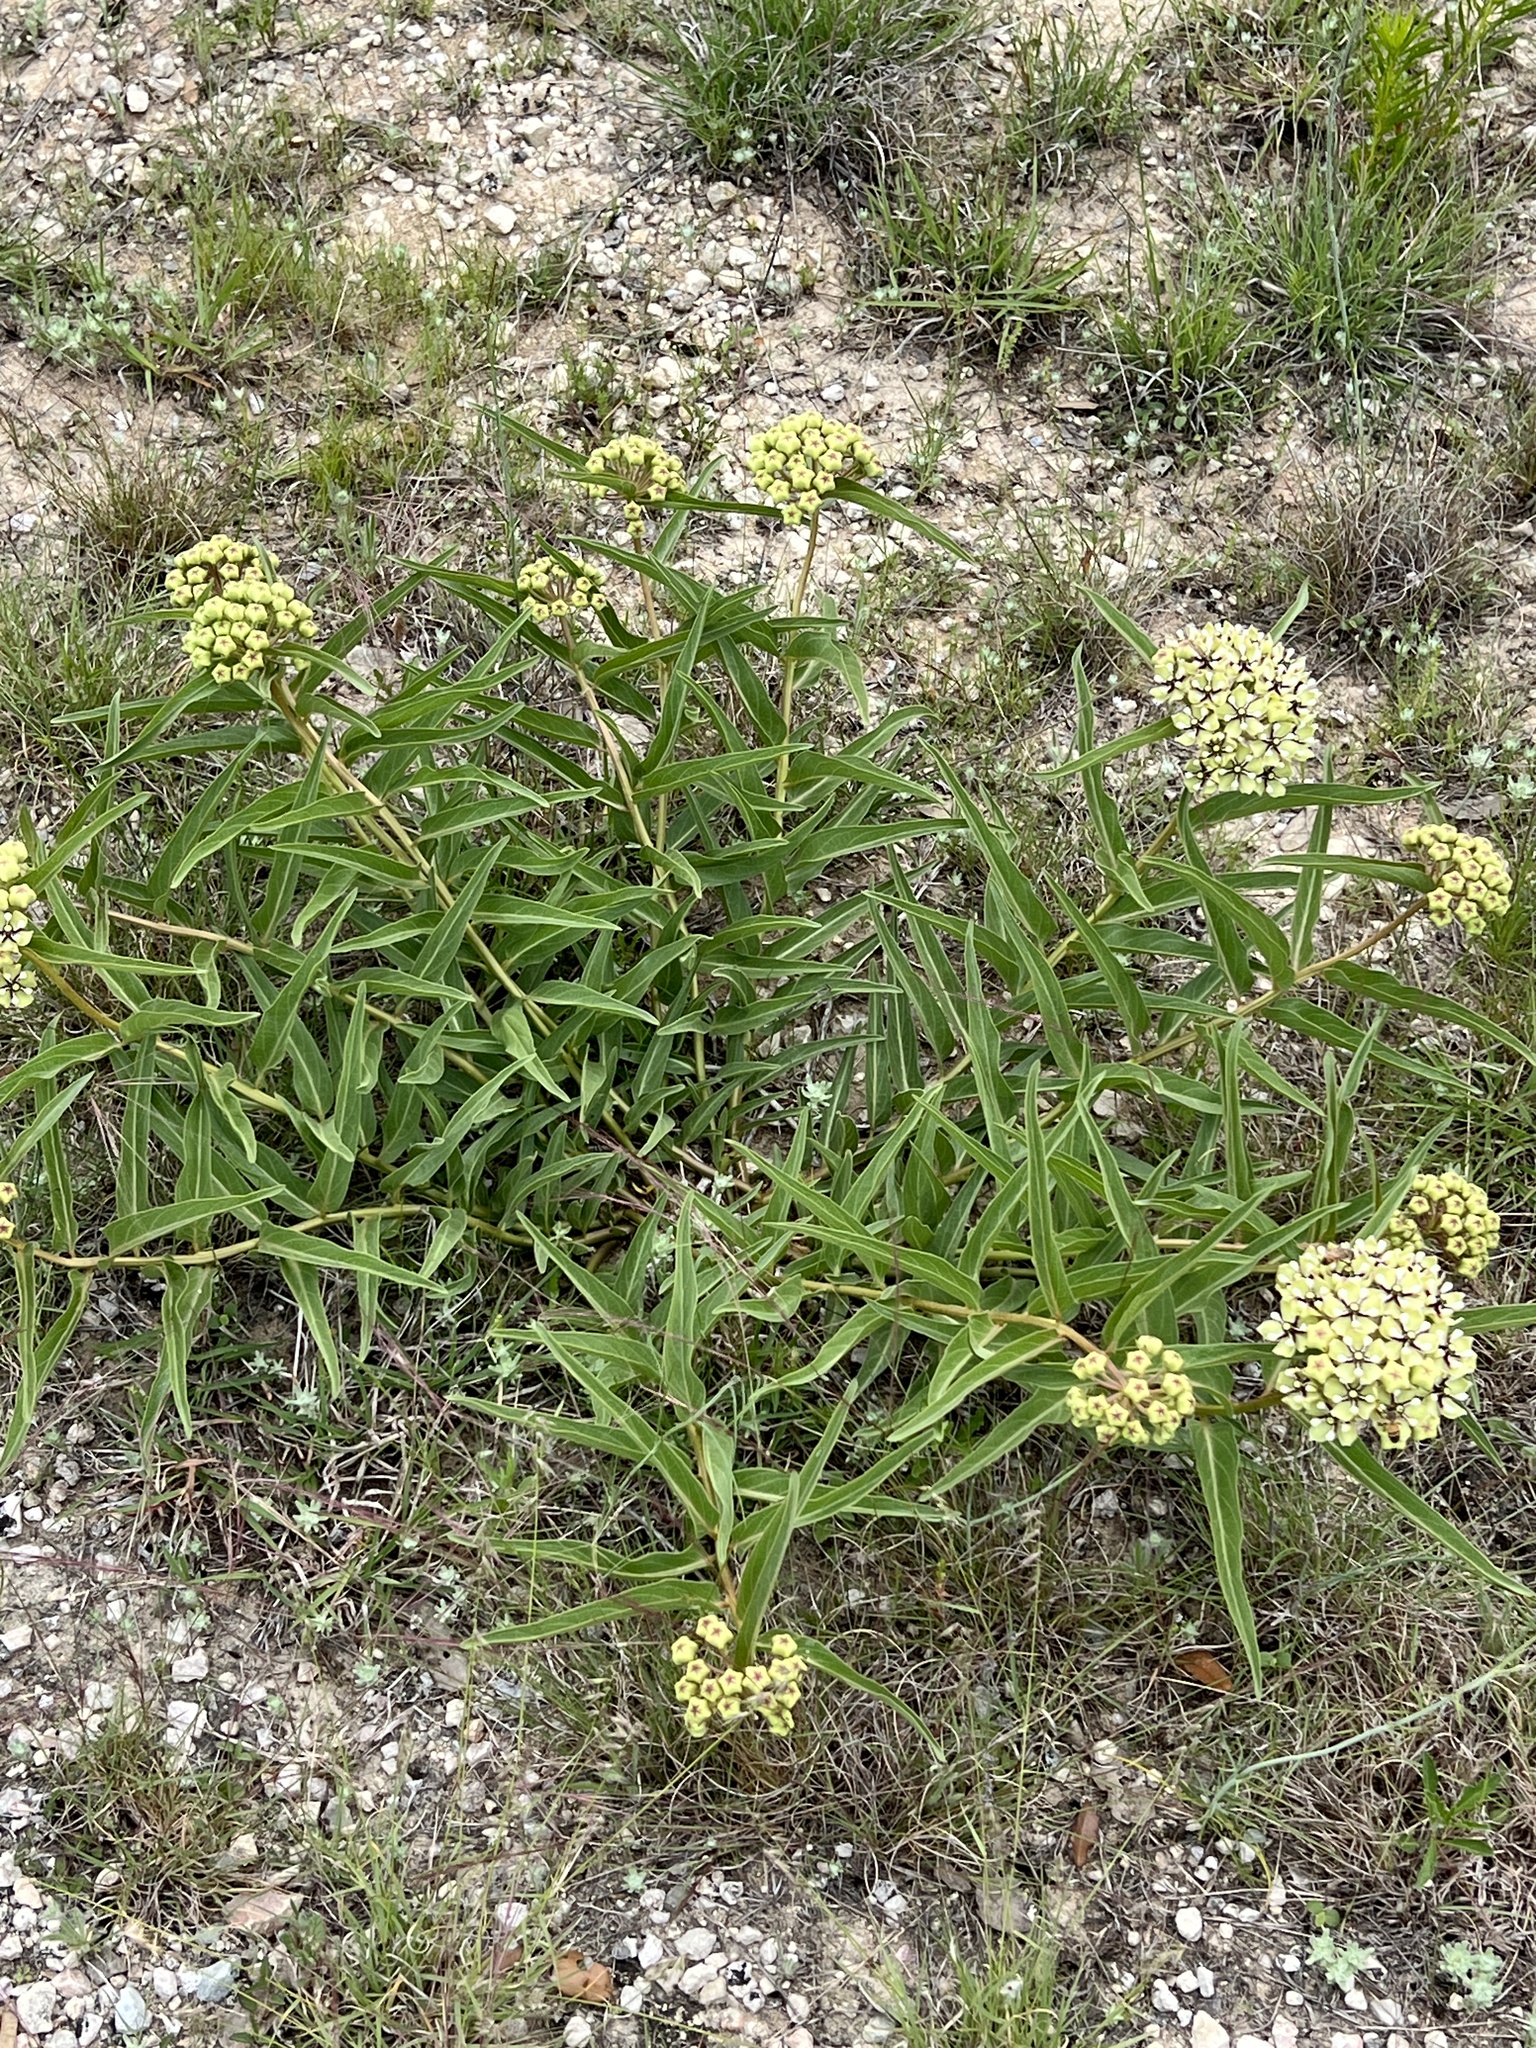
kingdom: Plantae
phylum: Tracheophyta
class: Magnoliopsida
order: Gentianales
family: Apocynaceae
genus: Asclepias
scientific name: Asclepias asperula
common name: Antelope horns
